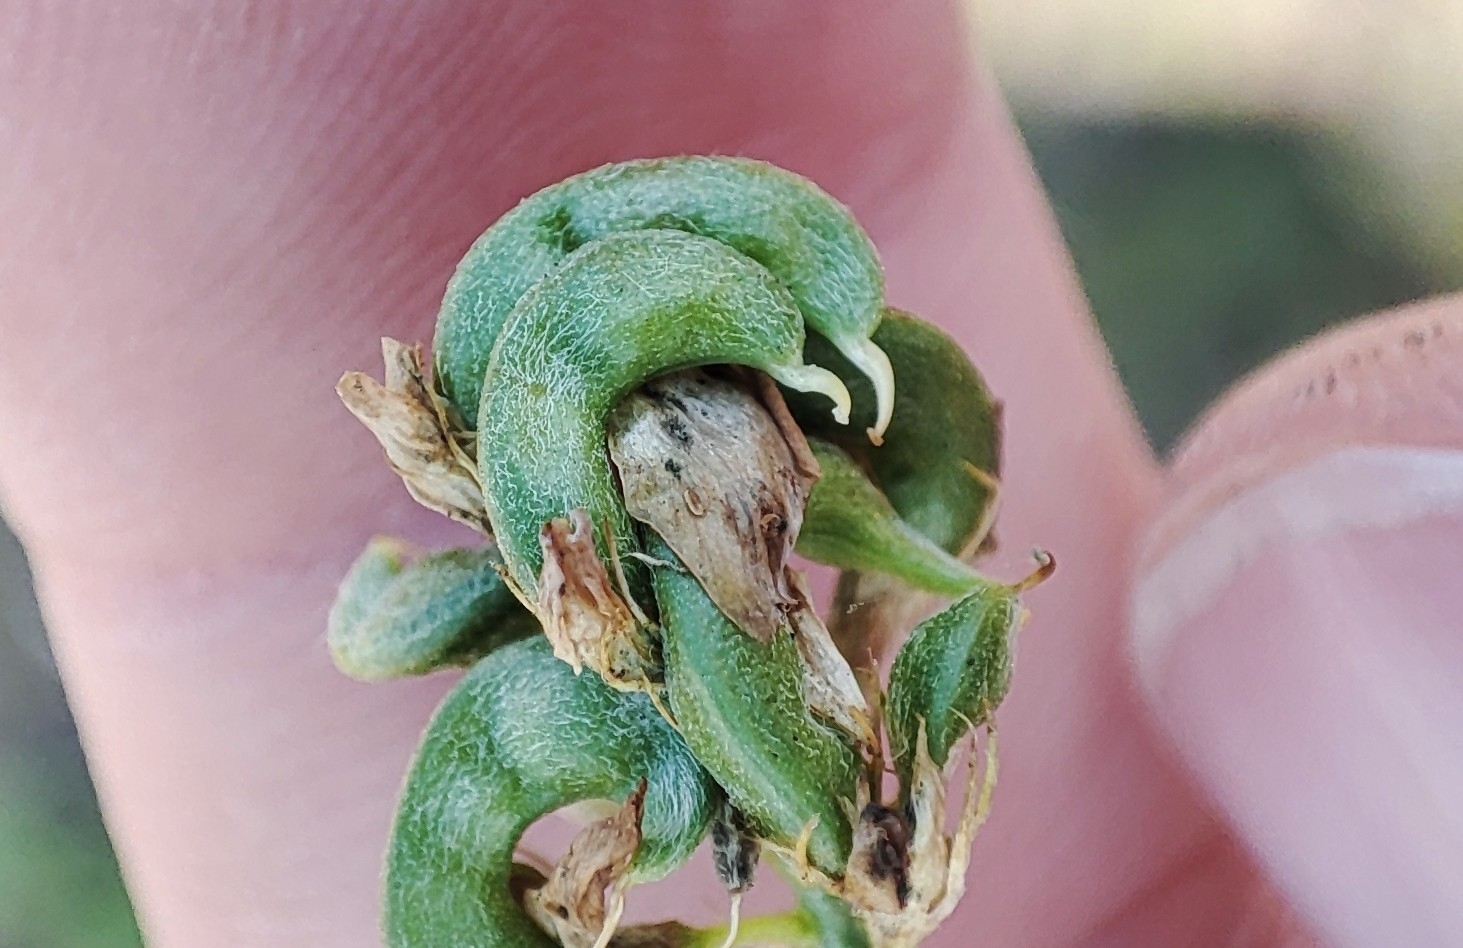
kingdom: Plantae
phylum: Tracheophyta
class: Magnoliopsida
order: Fabales
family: Fabaceae
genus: Medicago
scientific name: Medicago varia
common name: Sand lucerne
